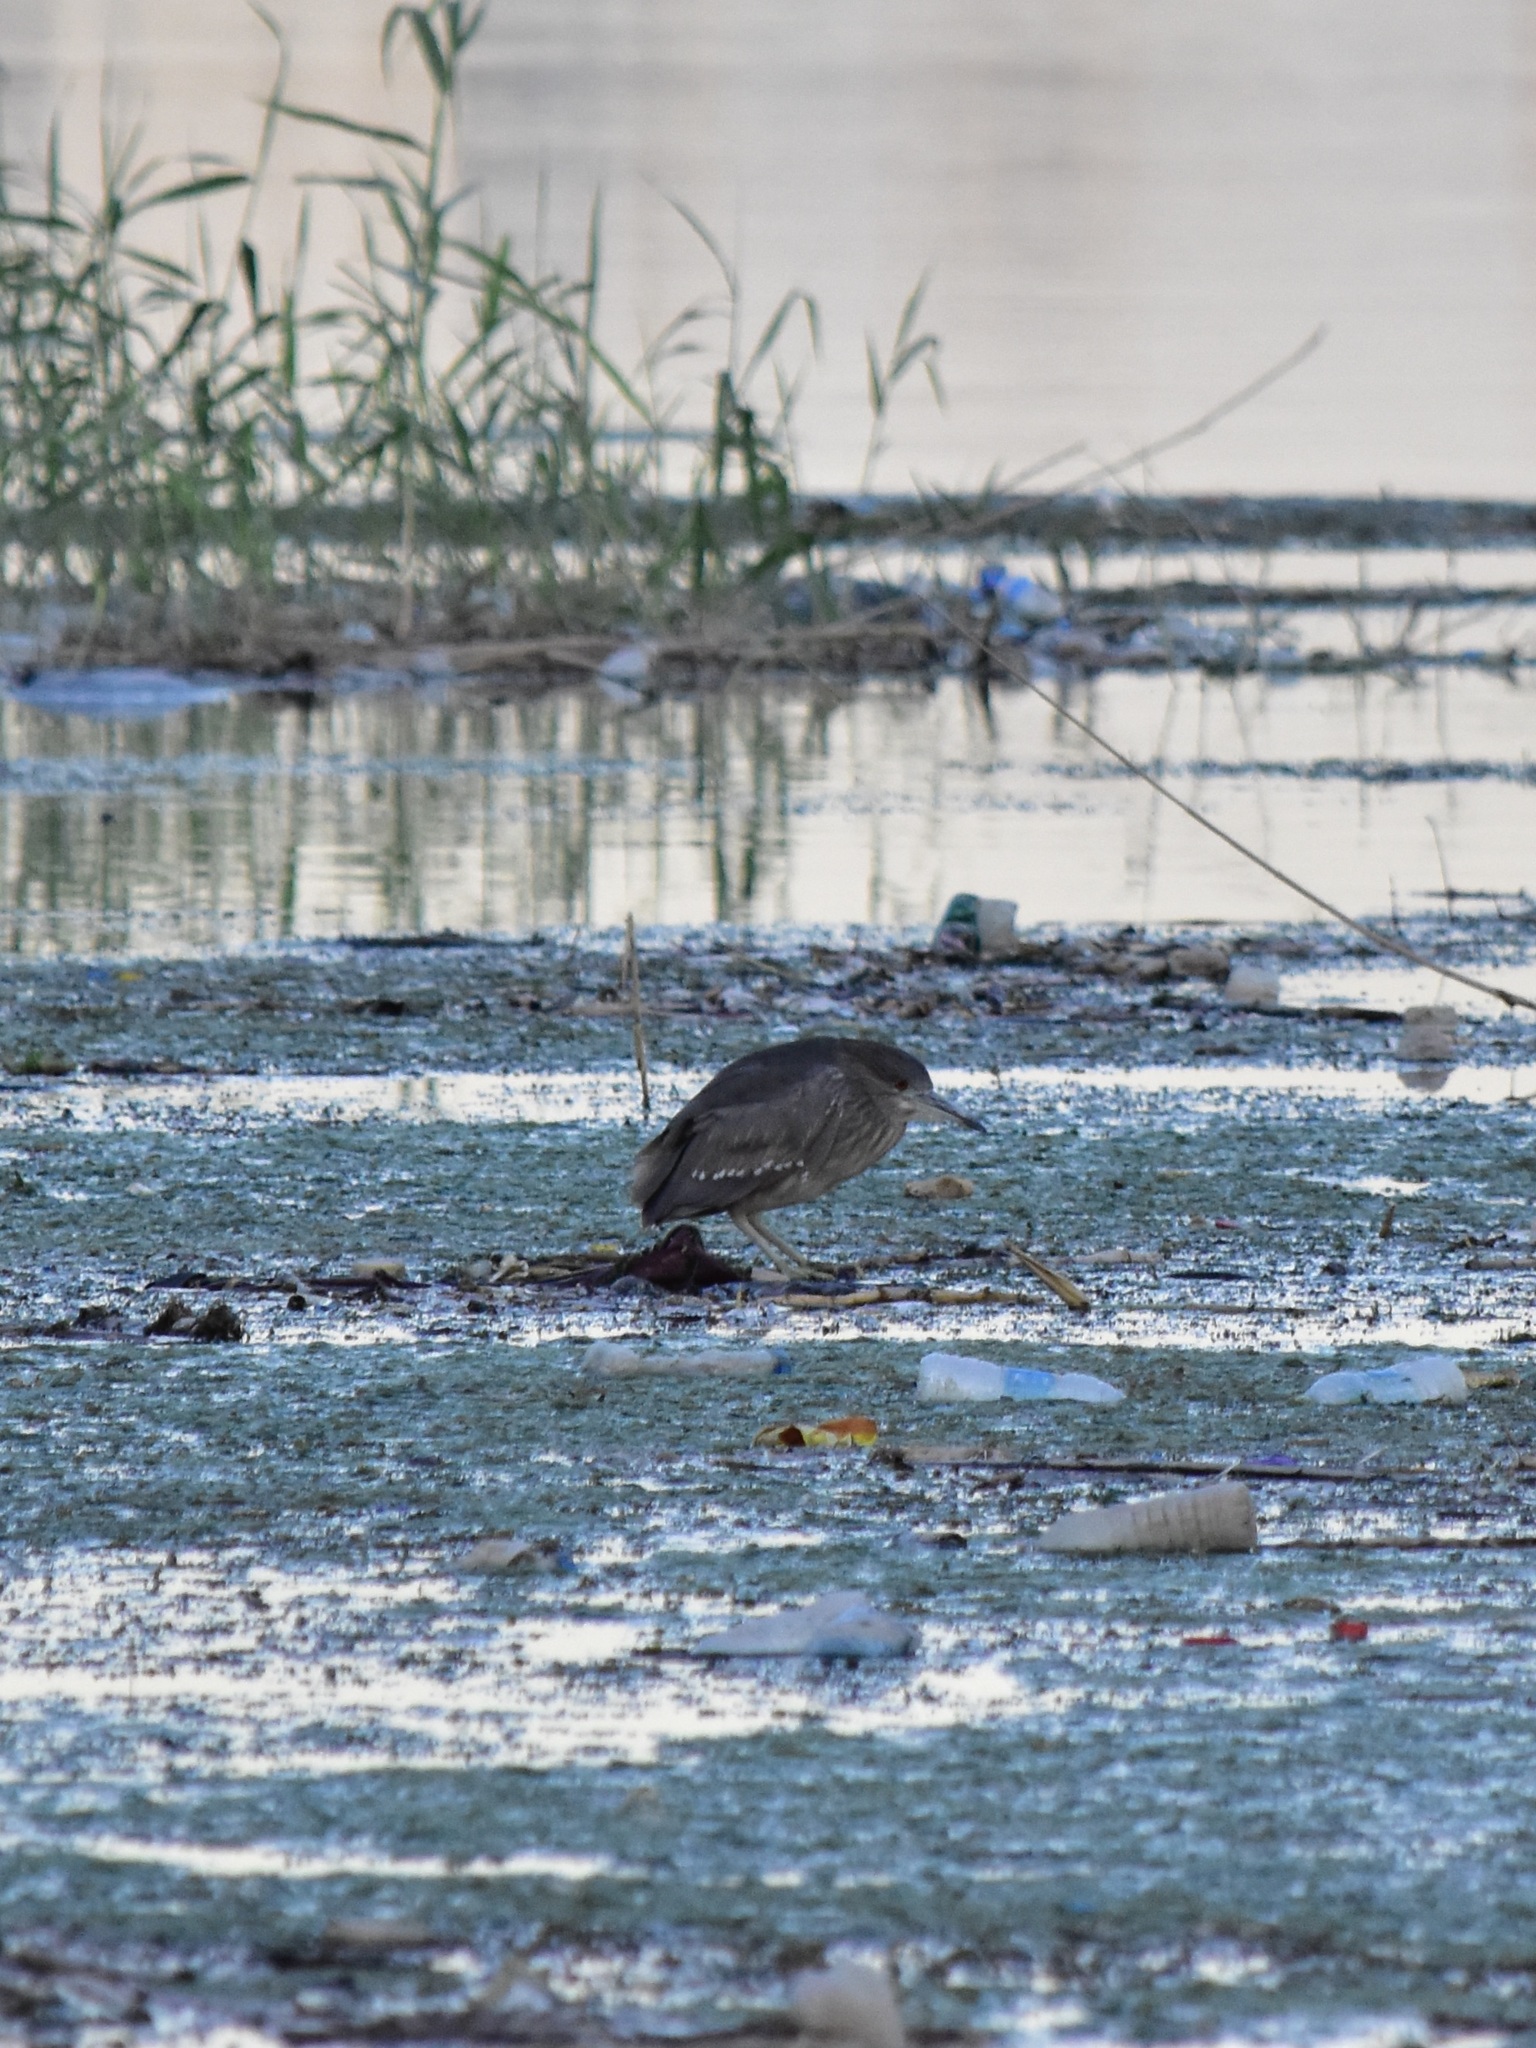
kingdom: Animalia
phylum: Chordata
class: Aves
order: Pelecaniformes
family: Ardeidae
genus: Nycticorax
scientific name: Nycticorax nycticorax
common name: Black-crowned night heron
